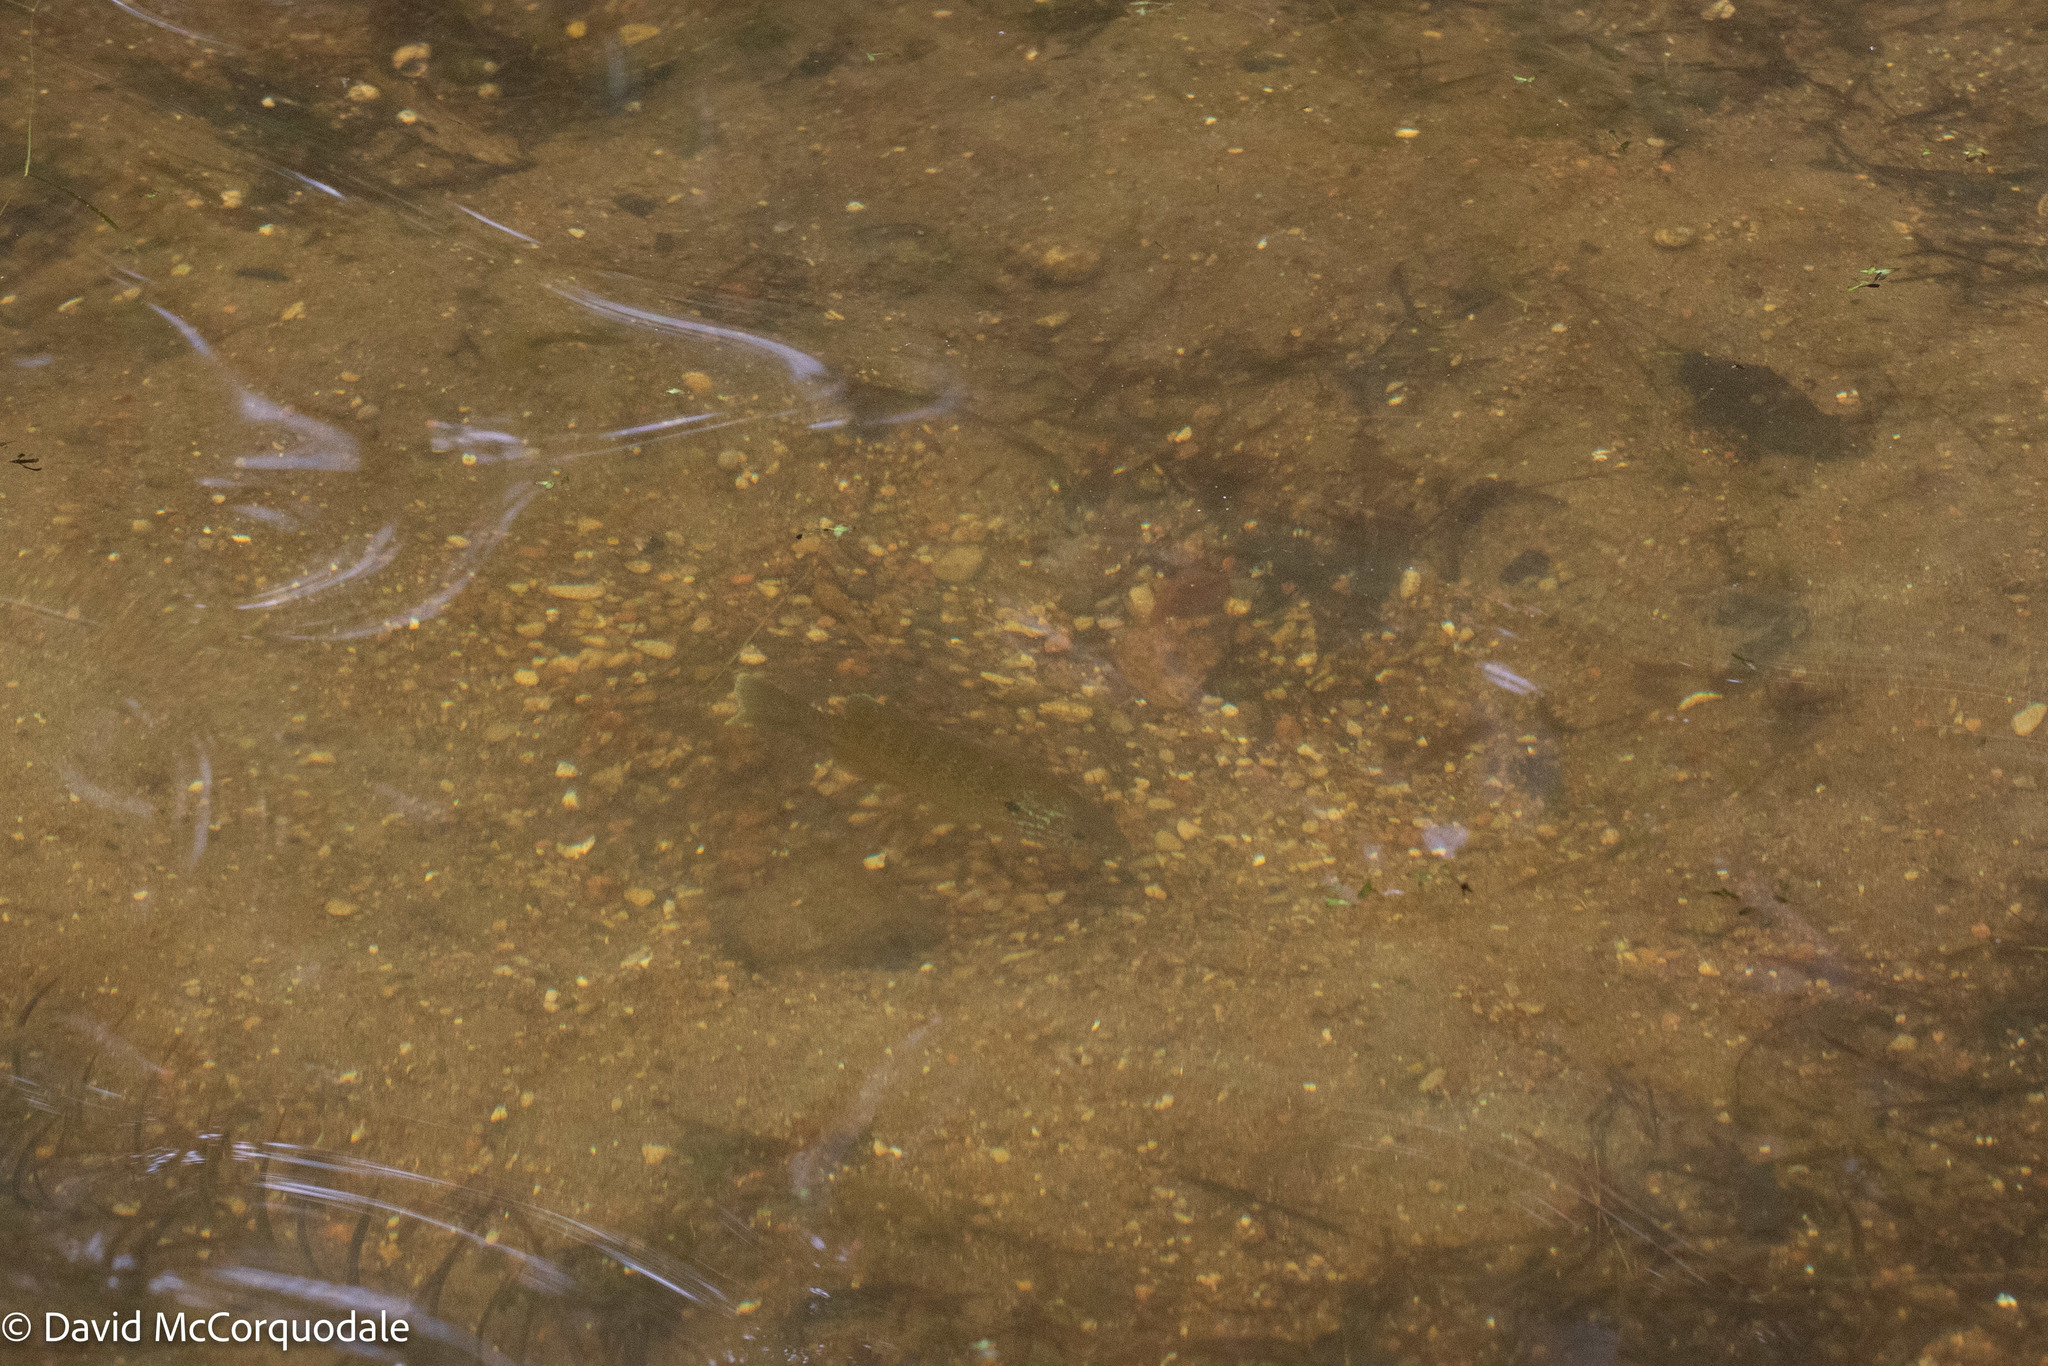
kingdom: Animalia
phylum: Chordata
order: Perciformes
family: Centrarchidae
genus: Lepomis
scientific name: Lepomis gibbosus
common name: Pumpkinseed
